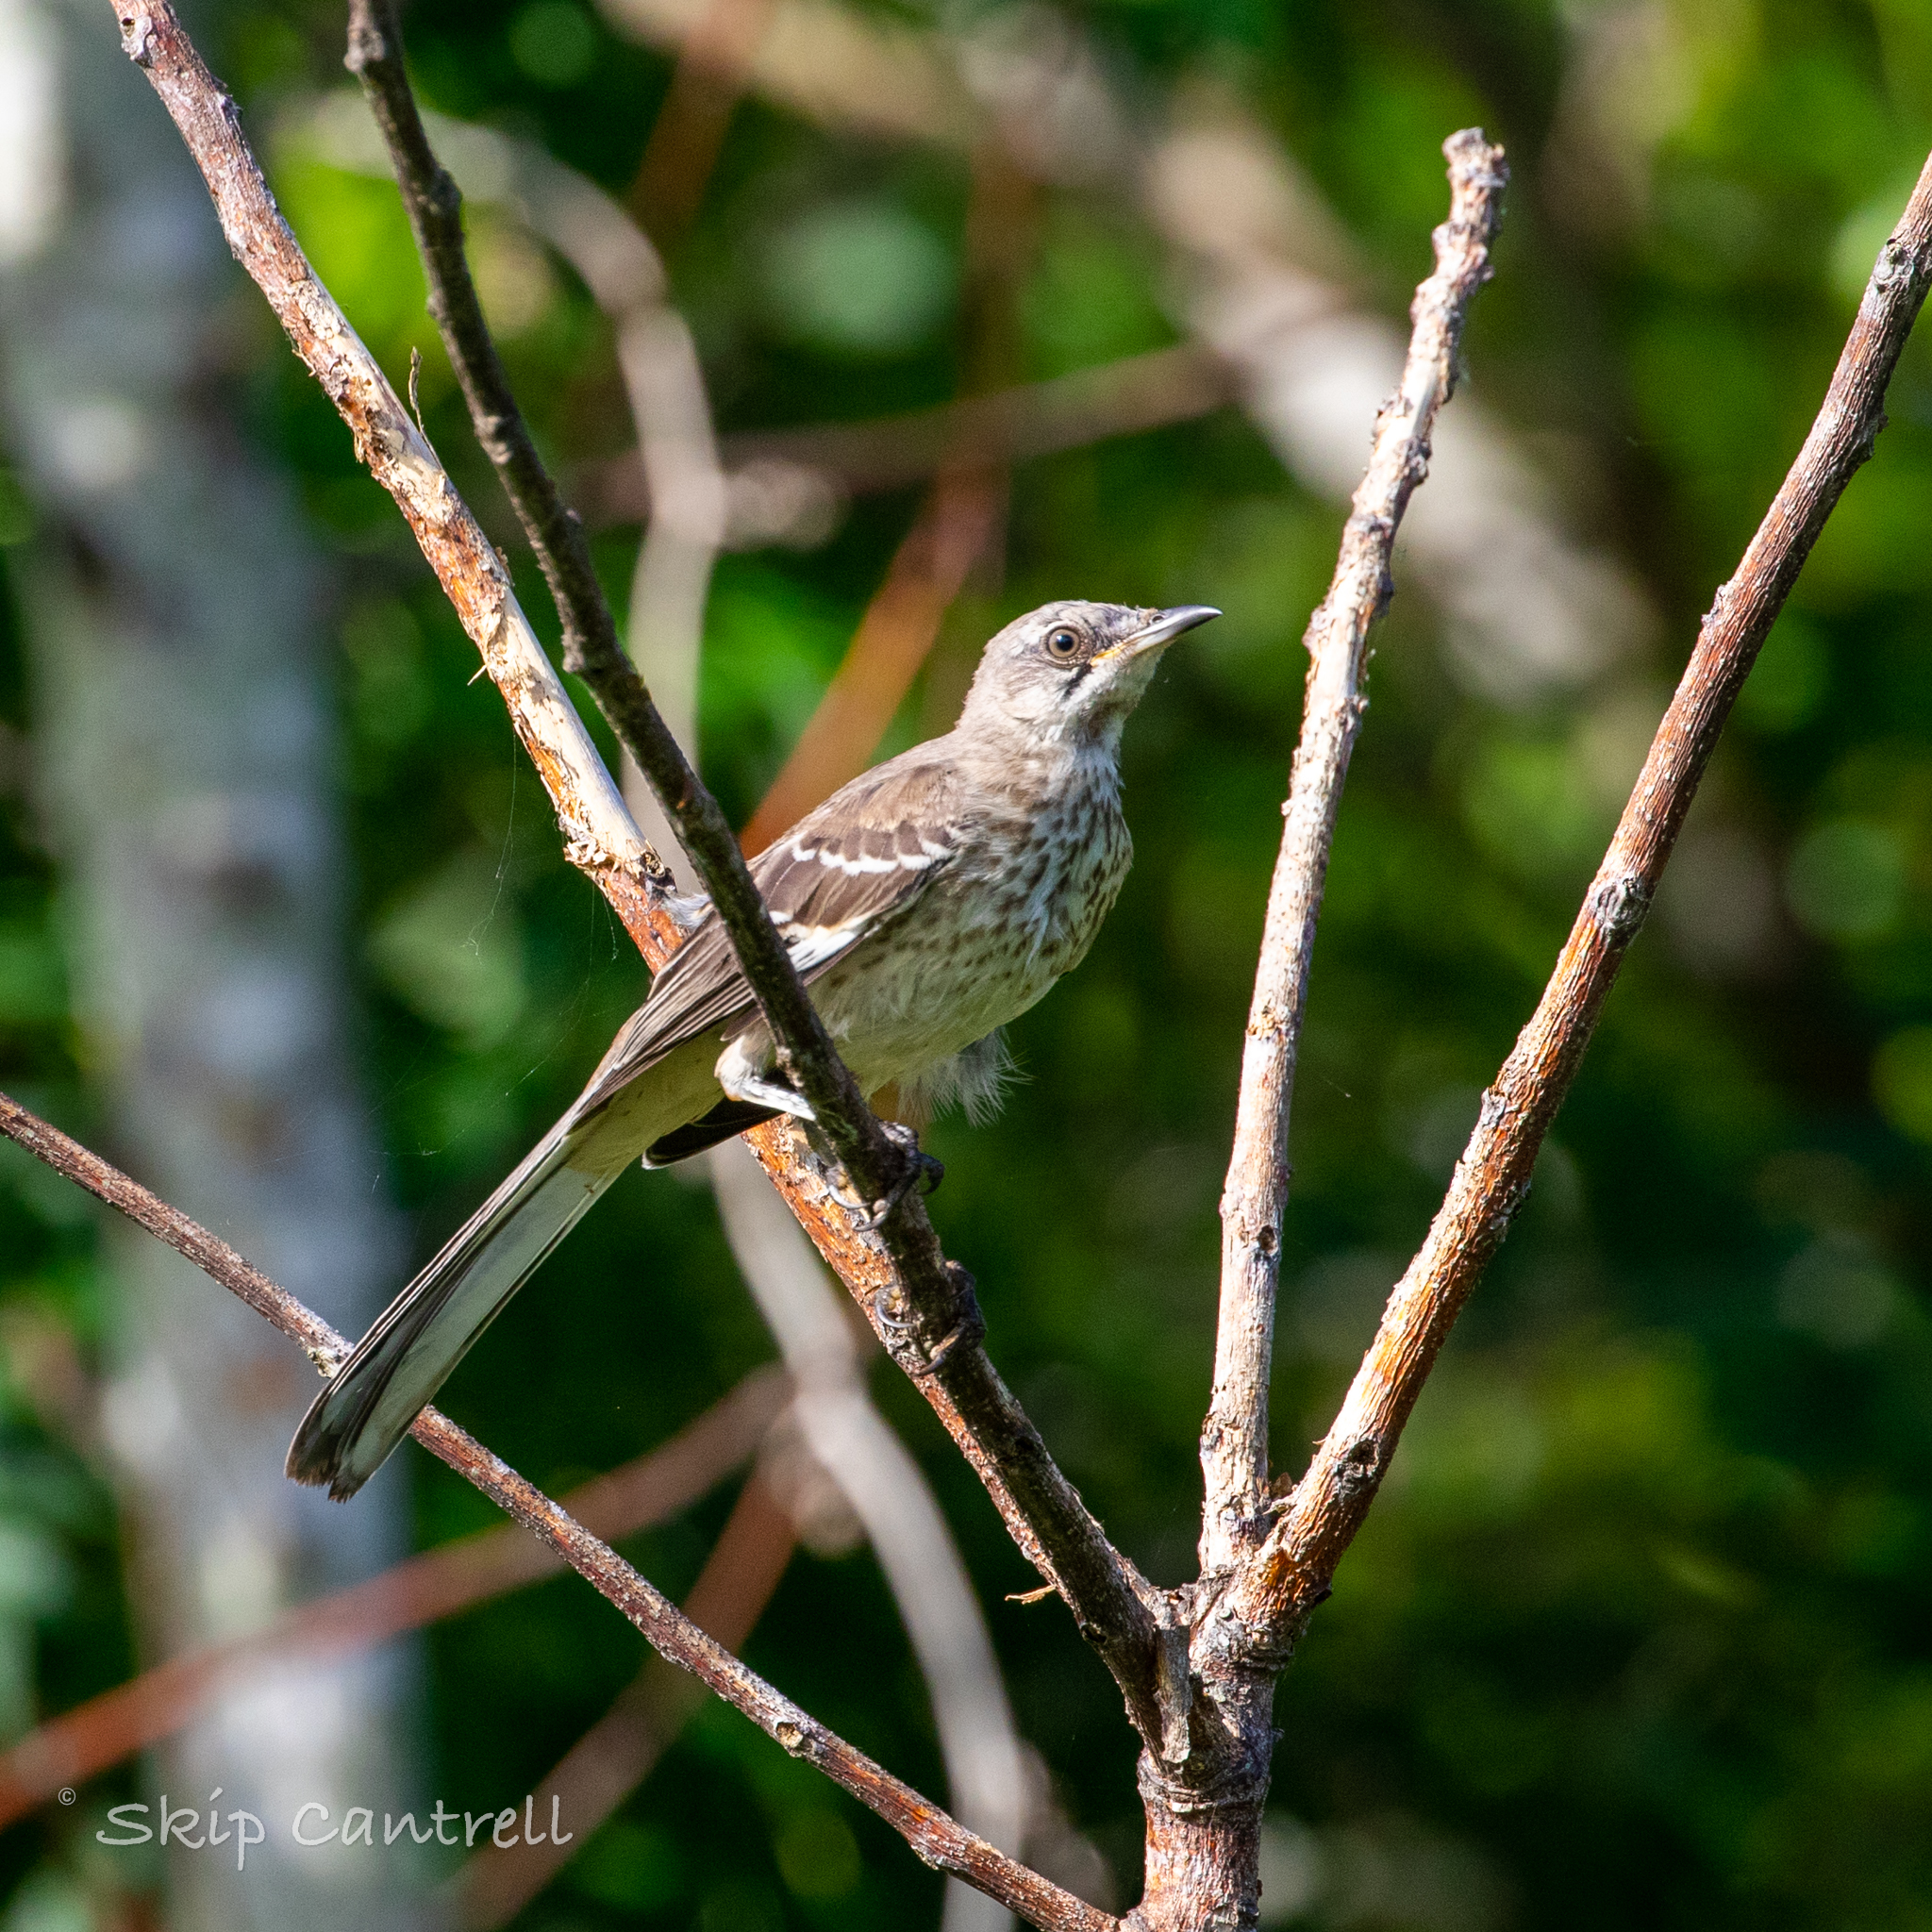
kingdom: Animalia
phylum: Chordata
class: Aves
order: Passeriformes
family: Mimidae
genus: Mimus
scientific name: Mimus polyglottos
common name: Northern mockingbird
